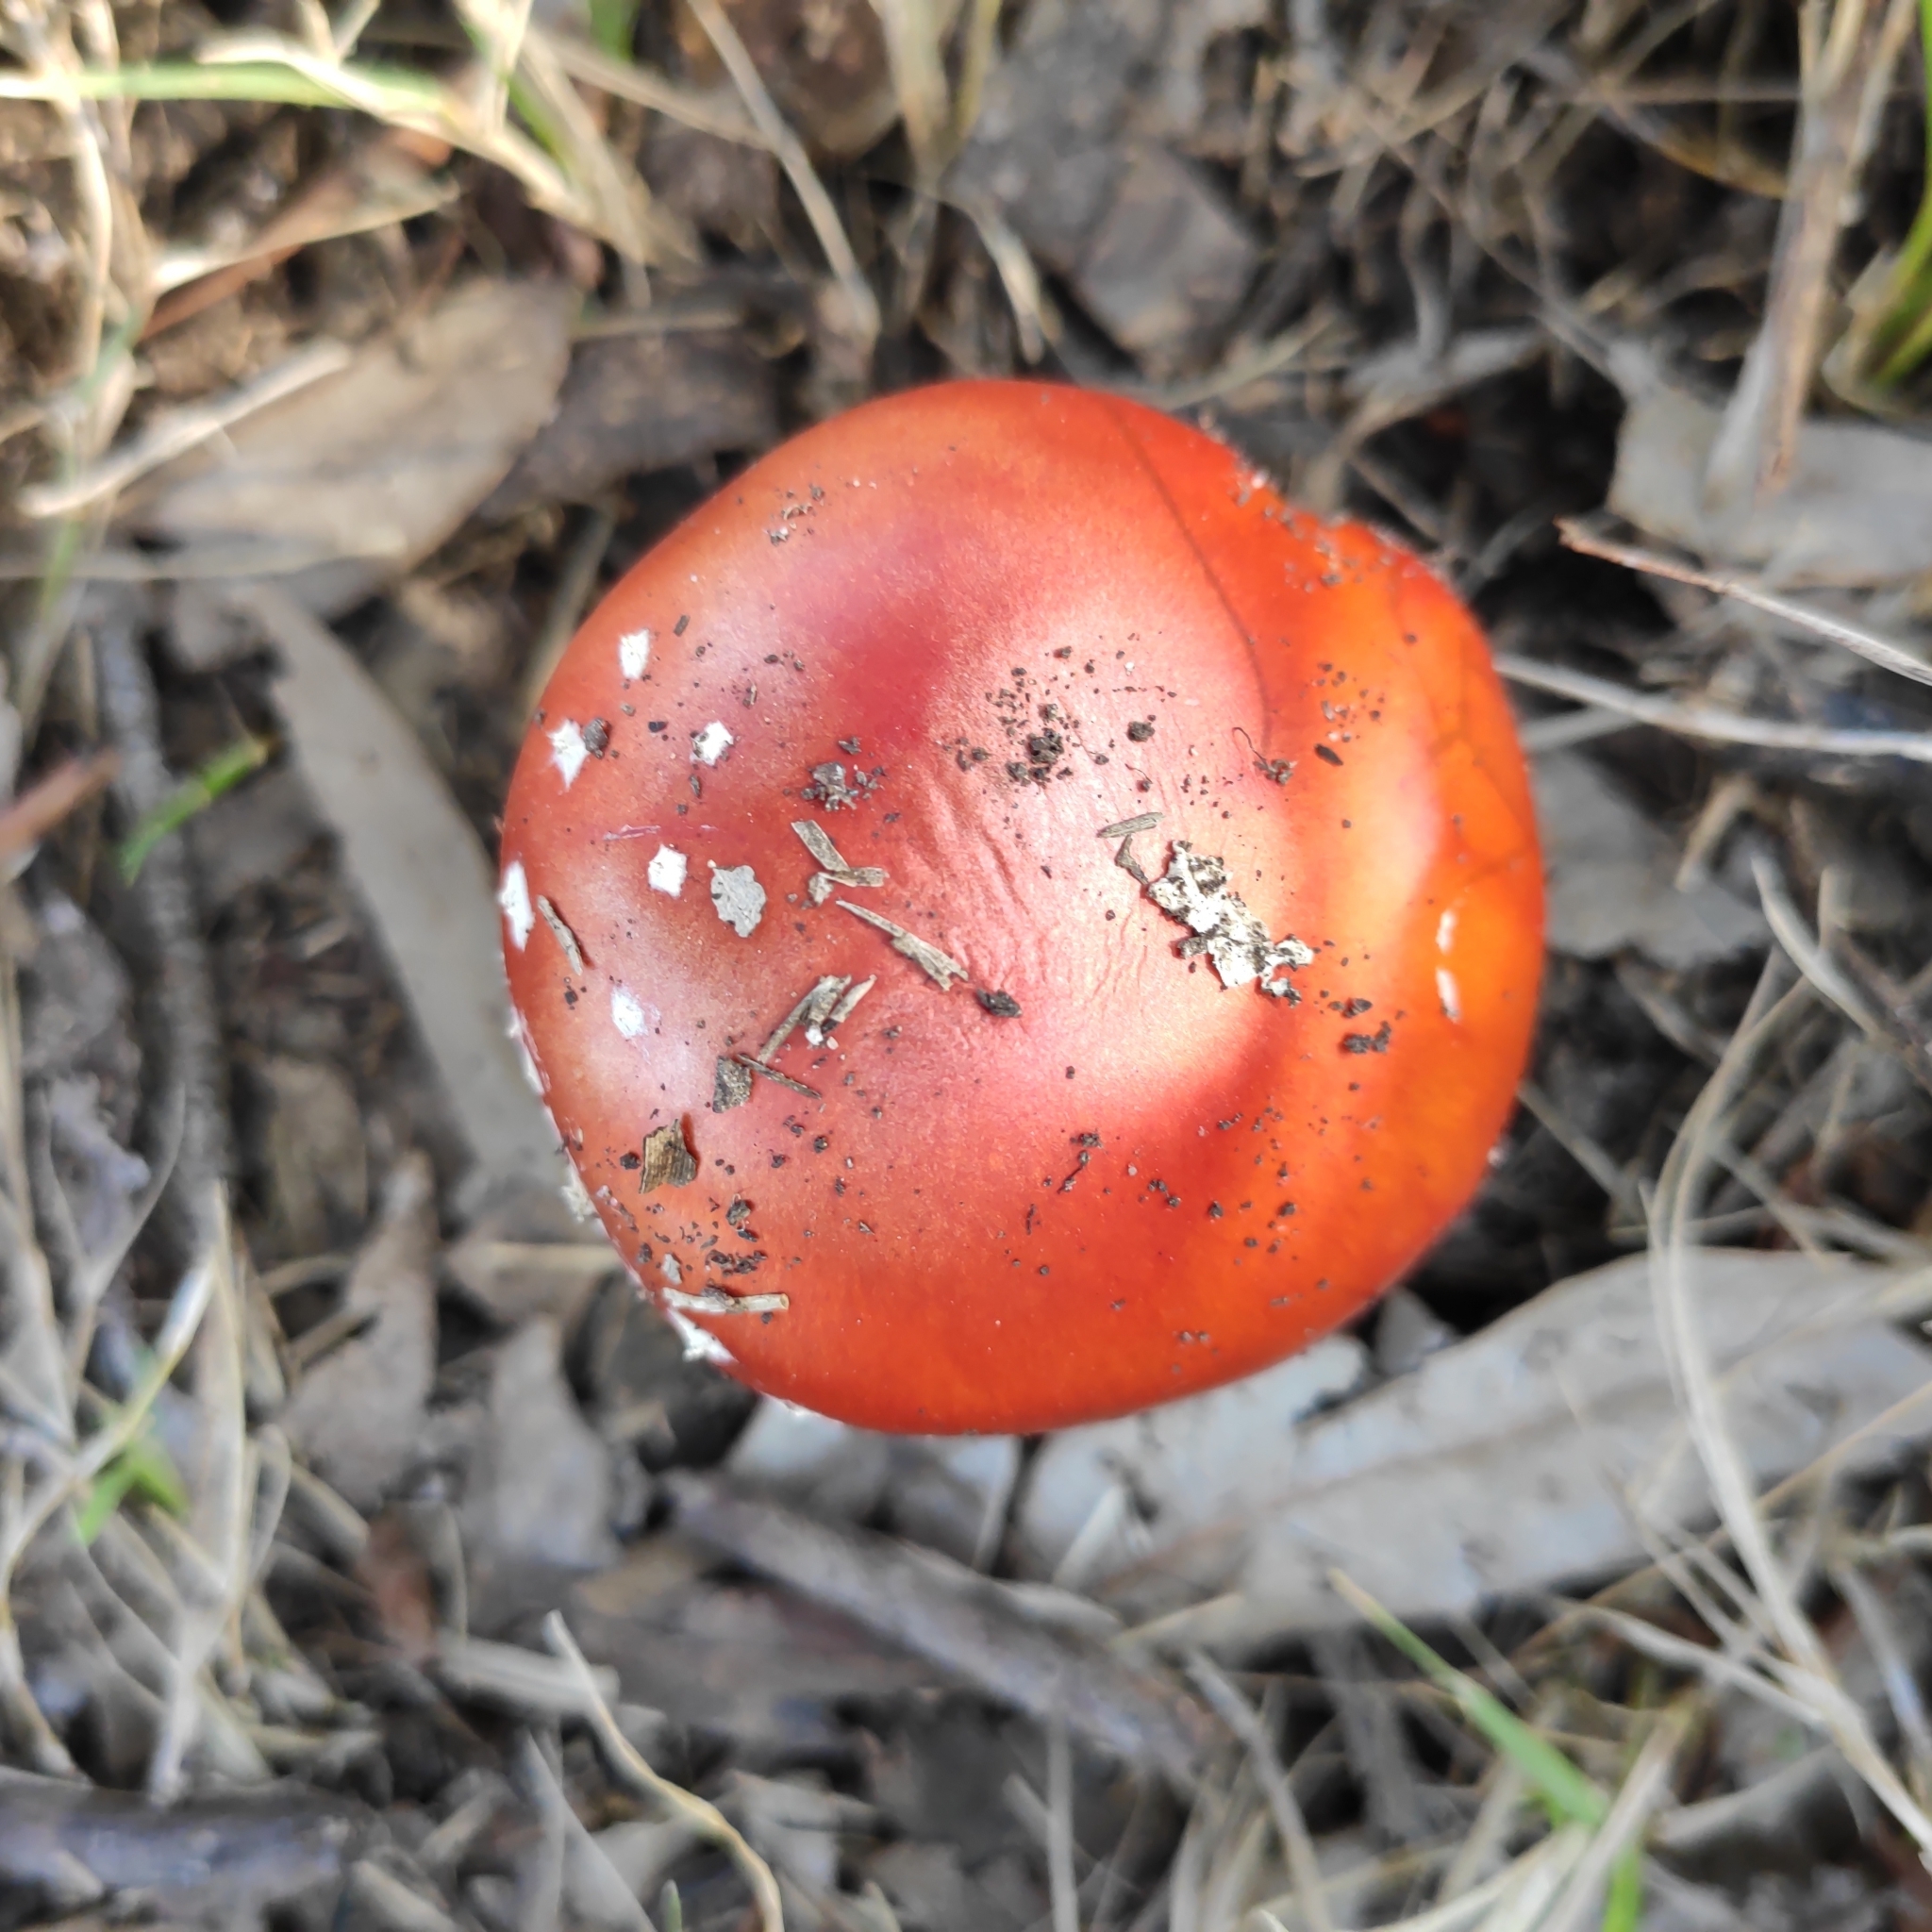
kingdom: Fungi
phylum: Basidiomycota
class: Agaricomycetes
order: Agaricales
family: Amanitaceae
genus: Amanita
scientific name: Amanita muscaria
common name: Fly agaric
